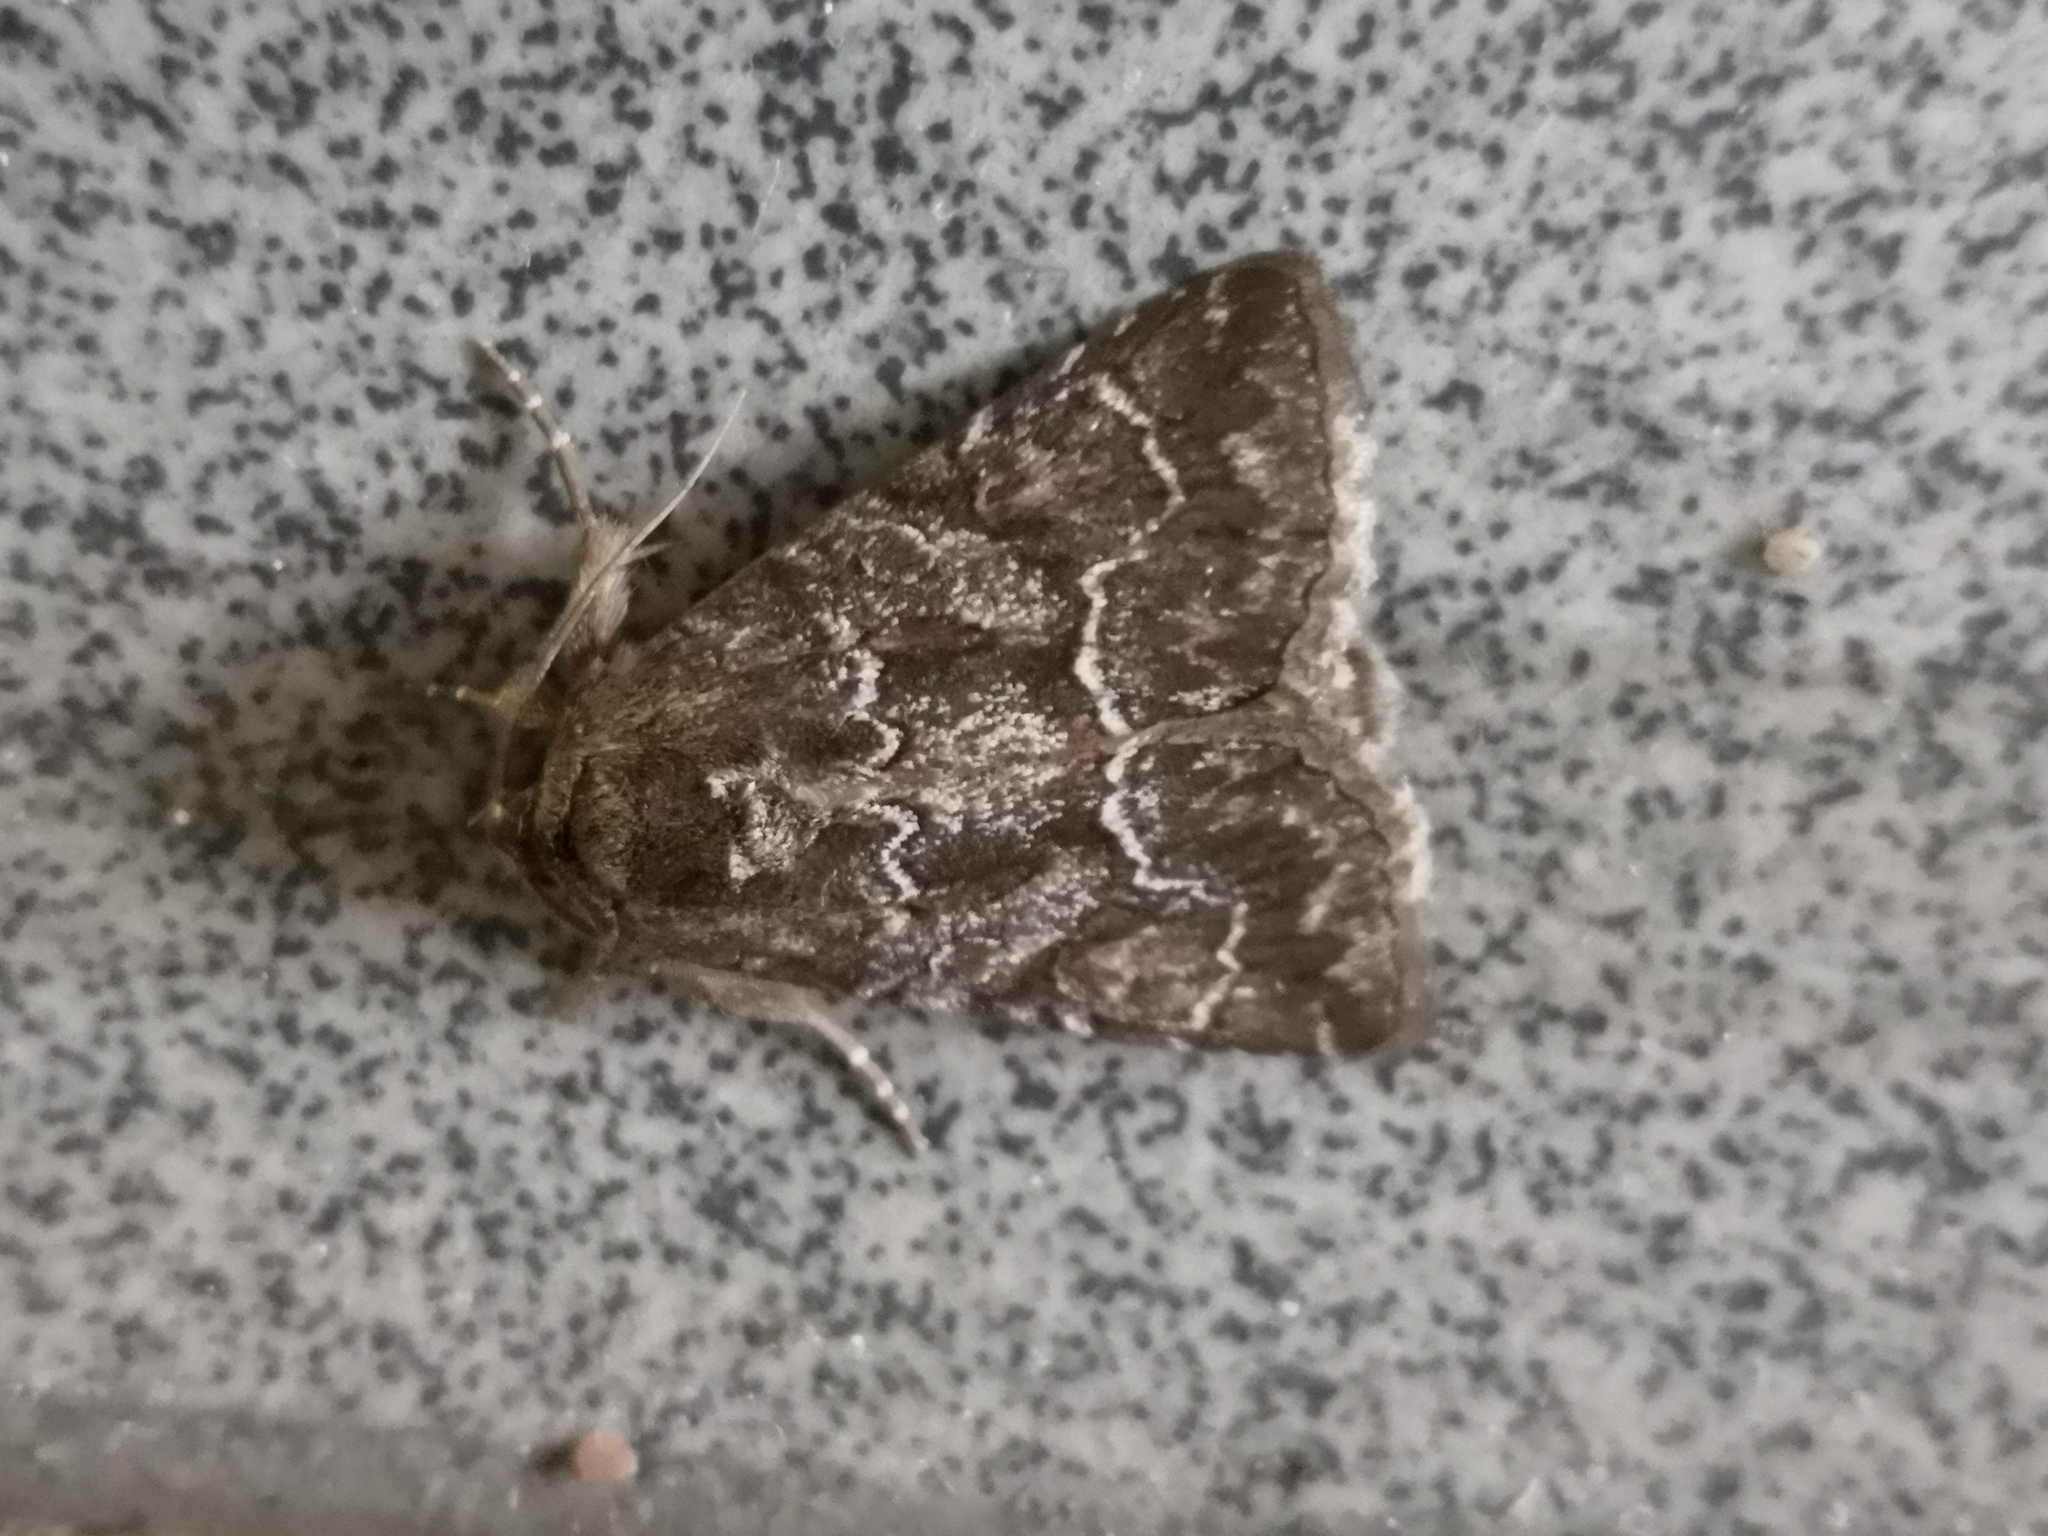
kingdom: Animalia
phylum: Arthropoda
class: Insecta
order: Lepidoptera
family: Noctuidae
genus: Thalpophila
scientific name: Thalpophila matura
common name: Straw underwing
